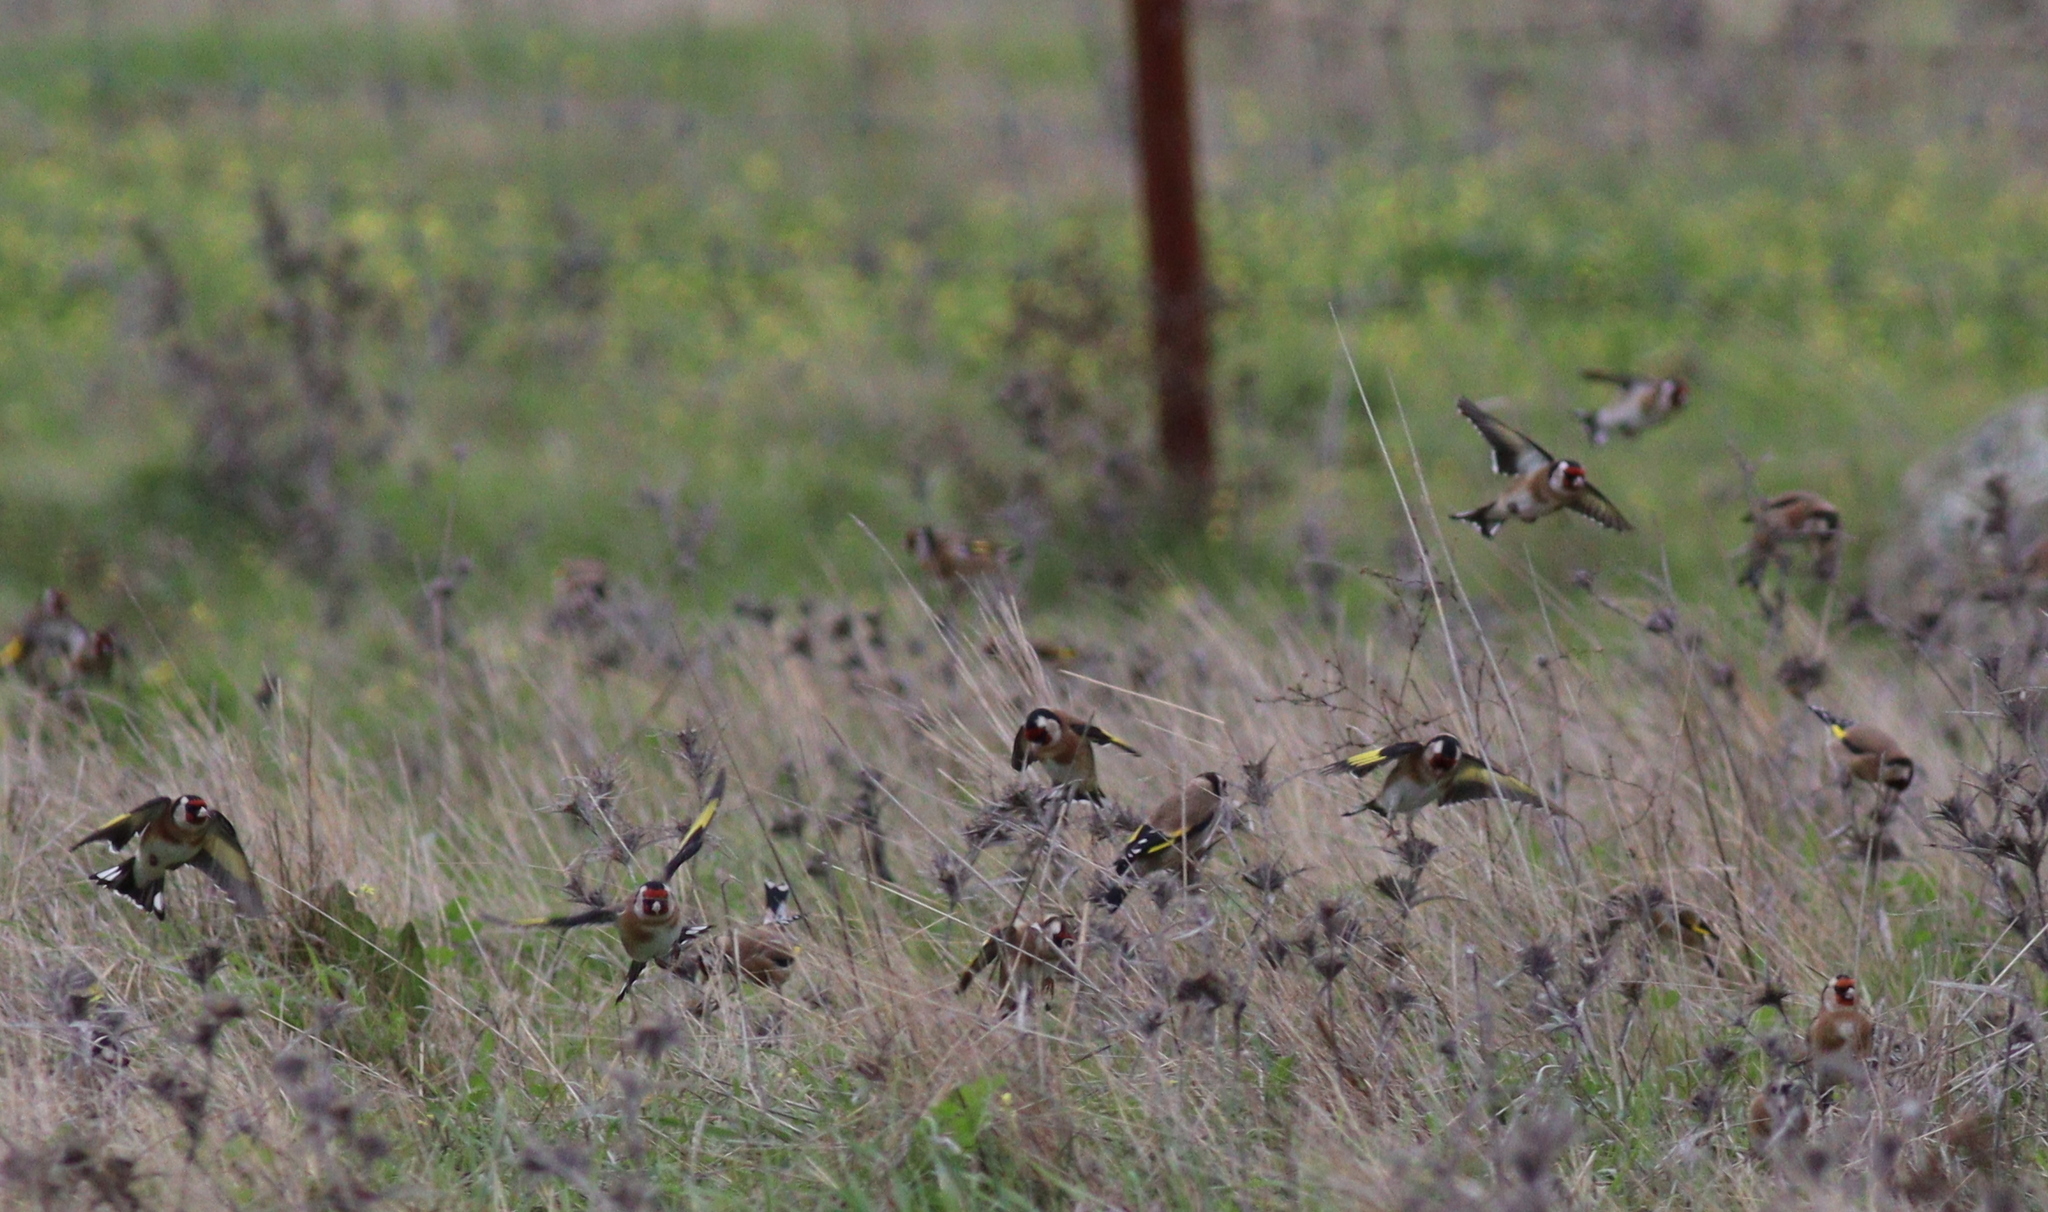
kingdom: Animalia
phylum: Chordata
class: Aves
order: Passeriformes
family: Fringillidae
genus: Carduelis
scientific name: Carduelis carduelis
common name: European goldfinch
